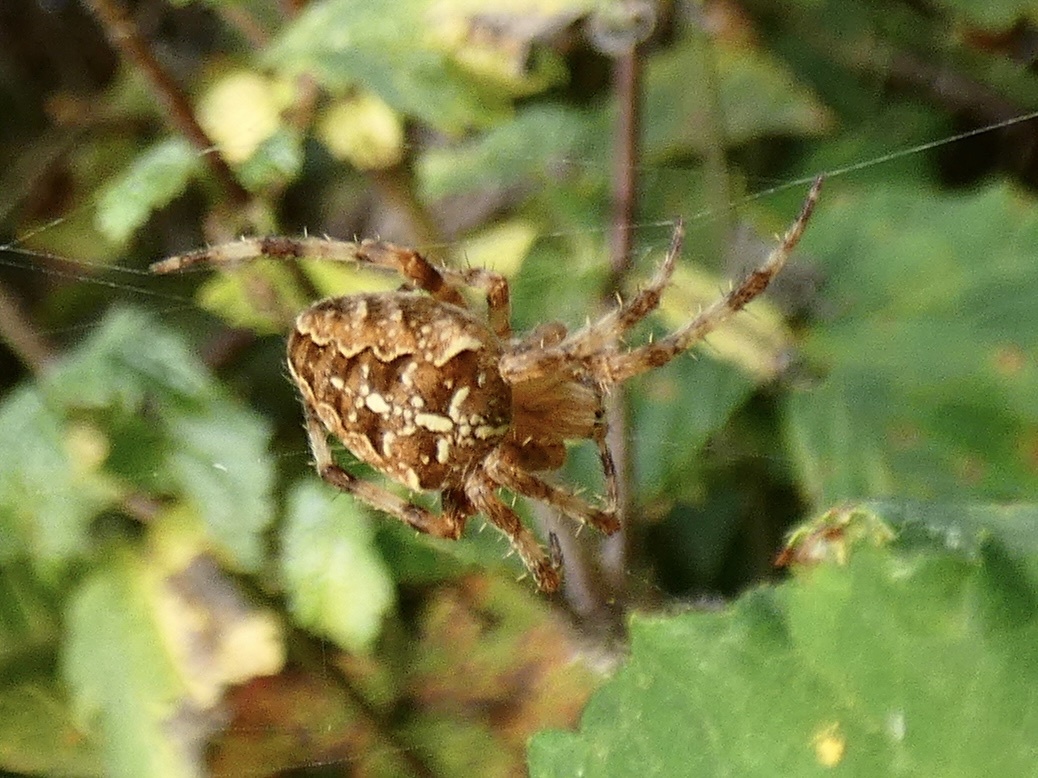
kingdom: Animalia
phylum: Arthropoda
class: Arachnida
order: Araneae
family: Araneidae
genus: Araneus
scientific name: Araneus diadematus
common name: Cross orbweaver
